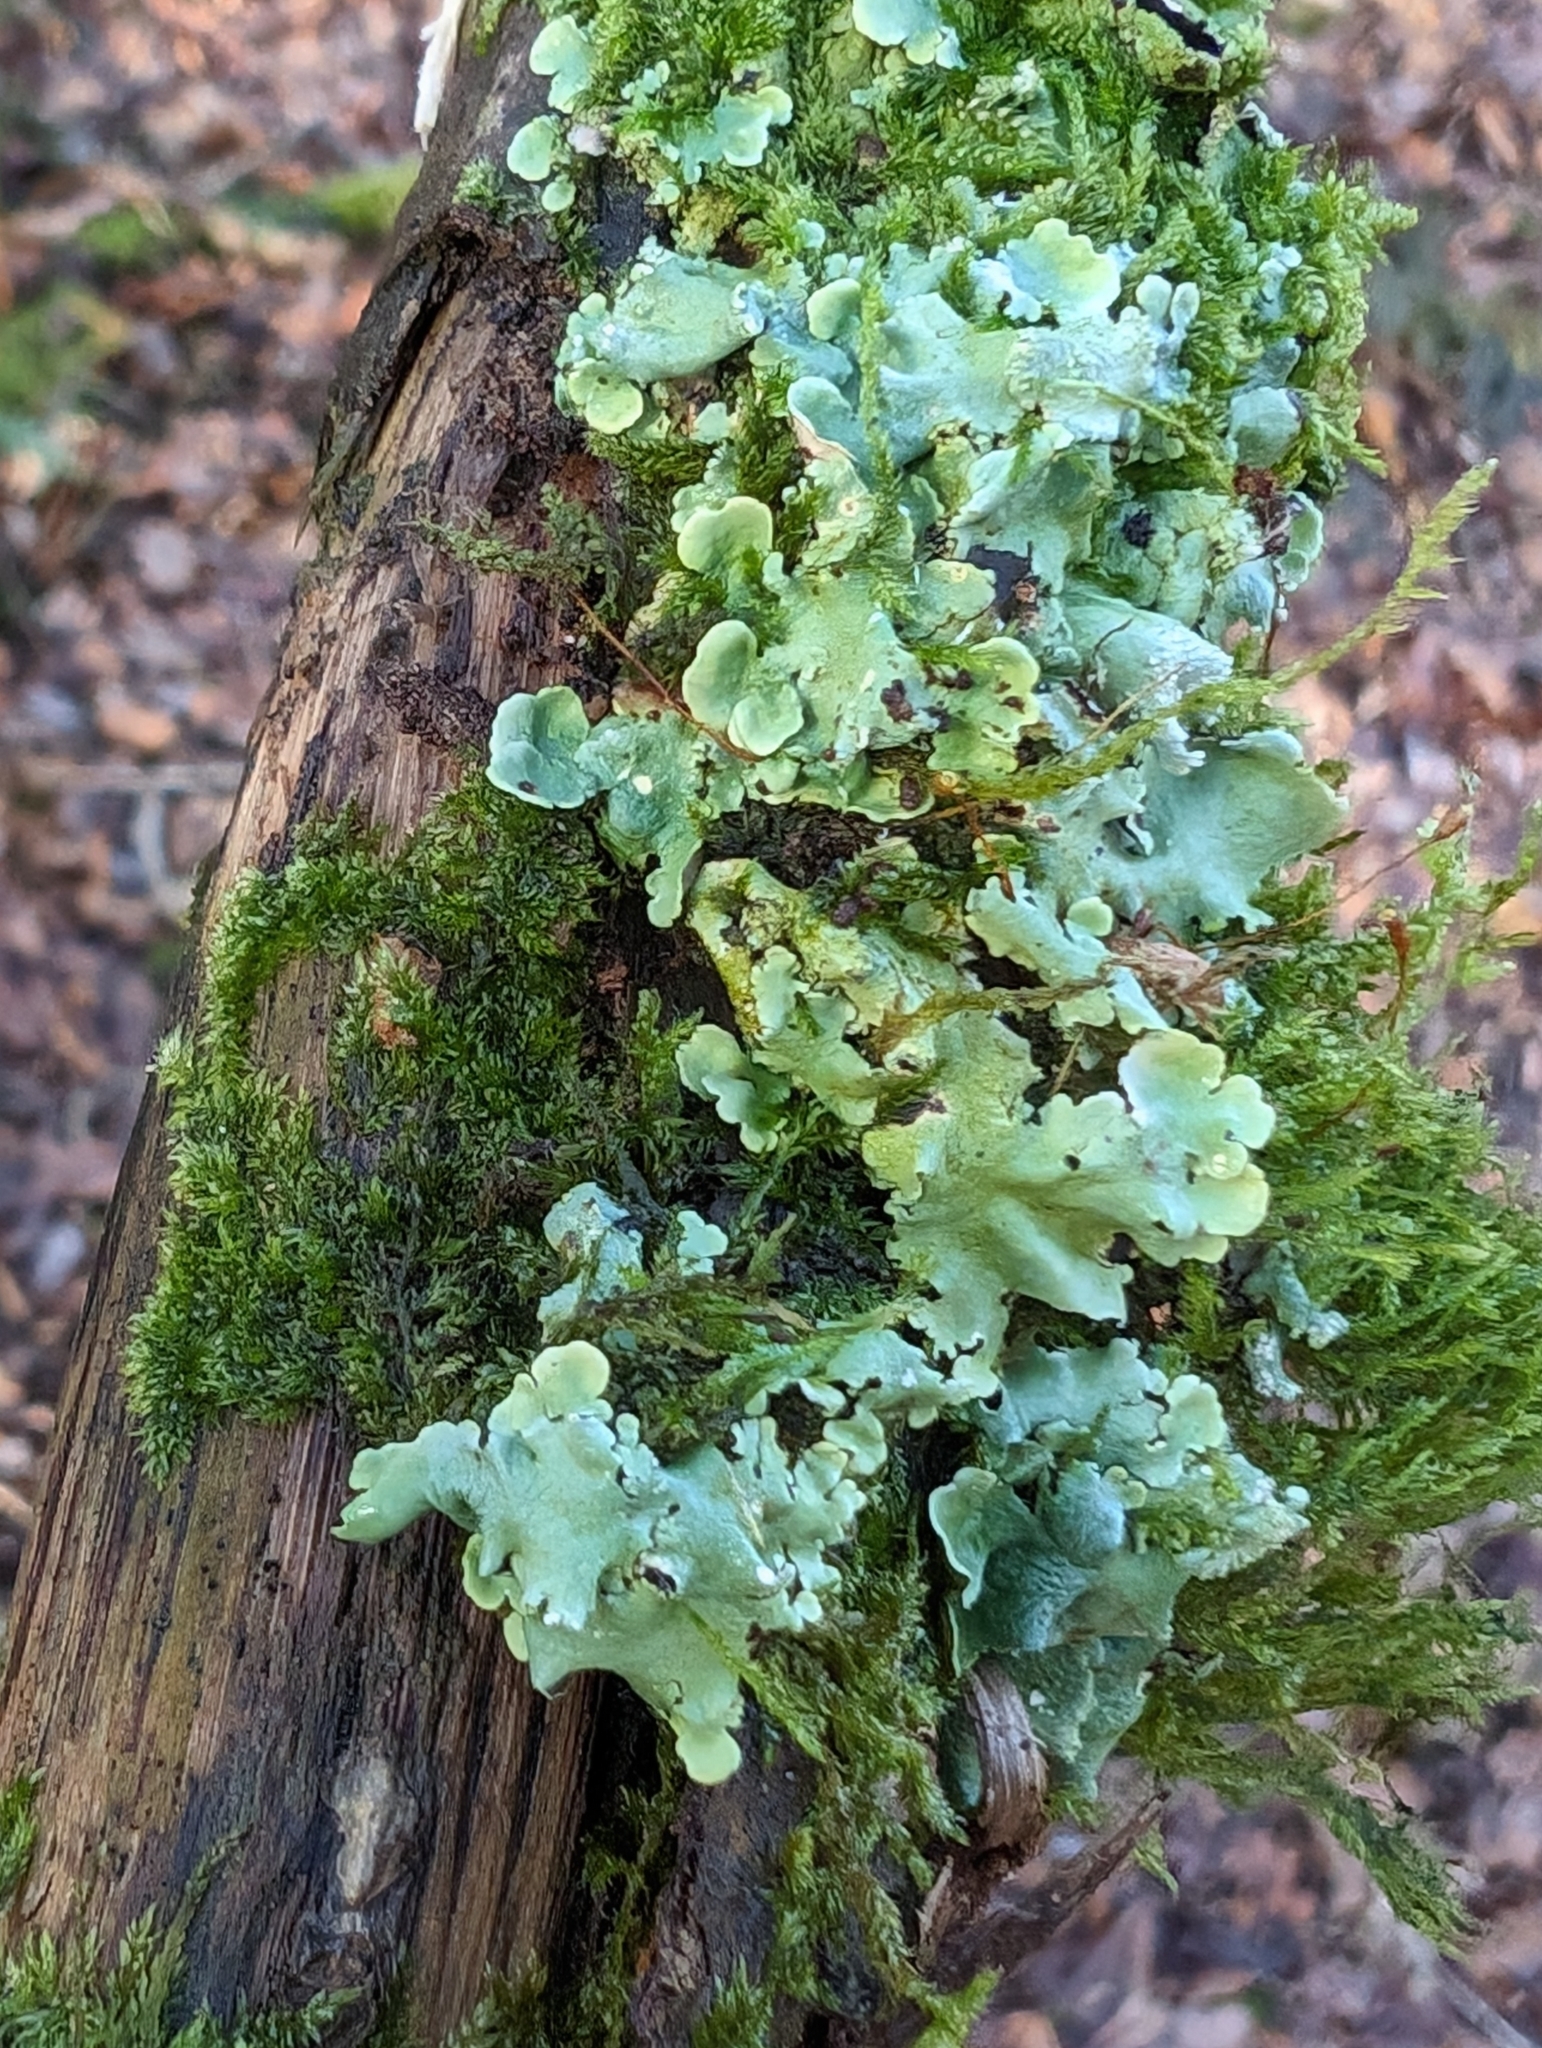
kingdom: Fungi
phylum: Ascomycota
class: Lecanoromycetes
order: Lecanorales
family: Parmeliaceae
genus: Flavoparmelia
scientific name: Flavoparmelia caperata
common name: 40-mile per hour lichen
